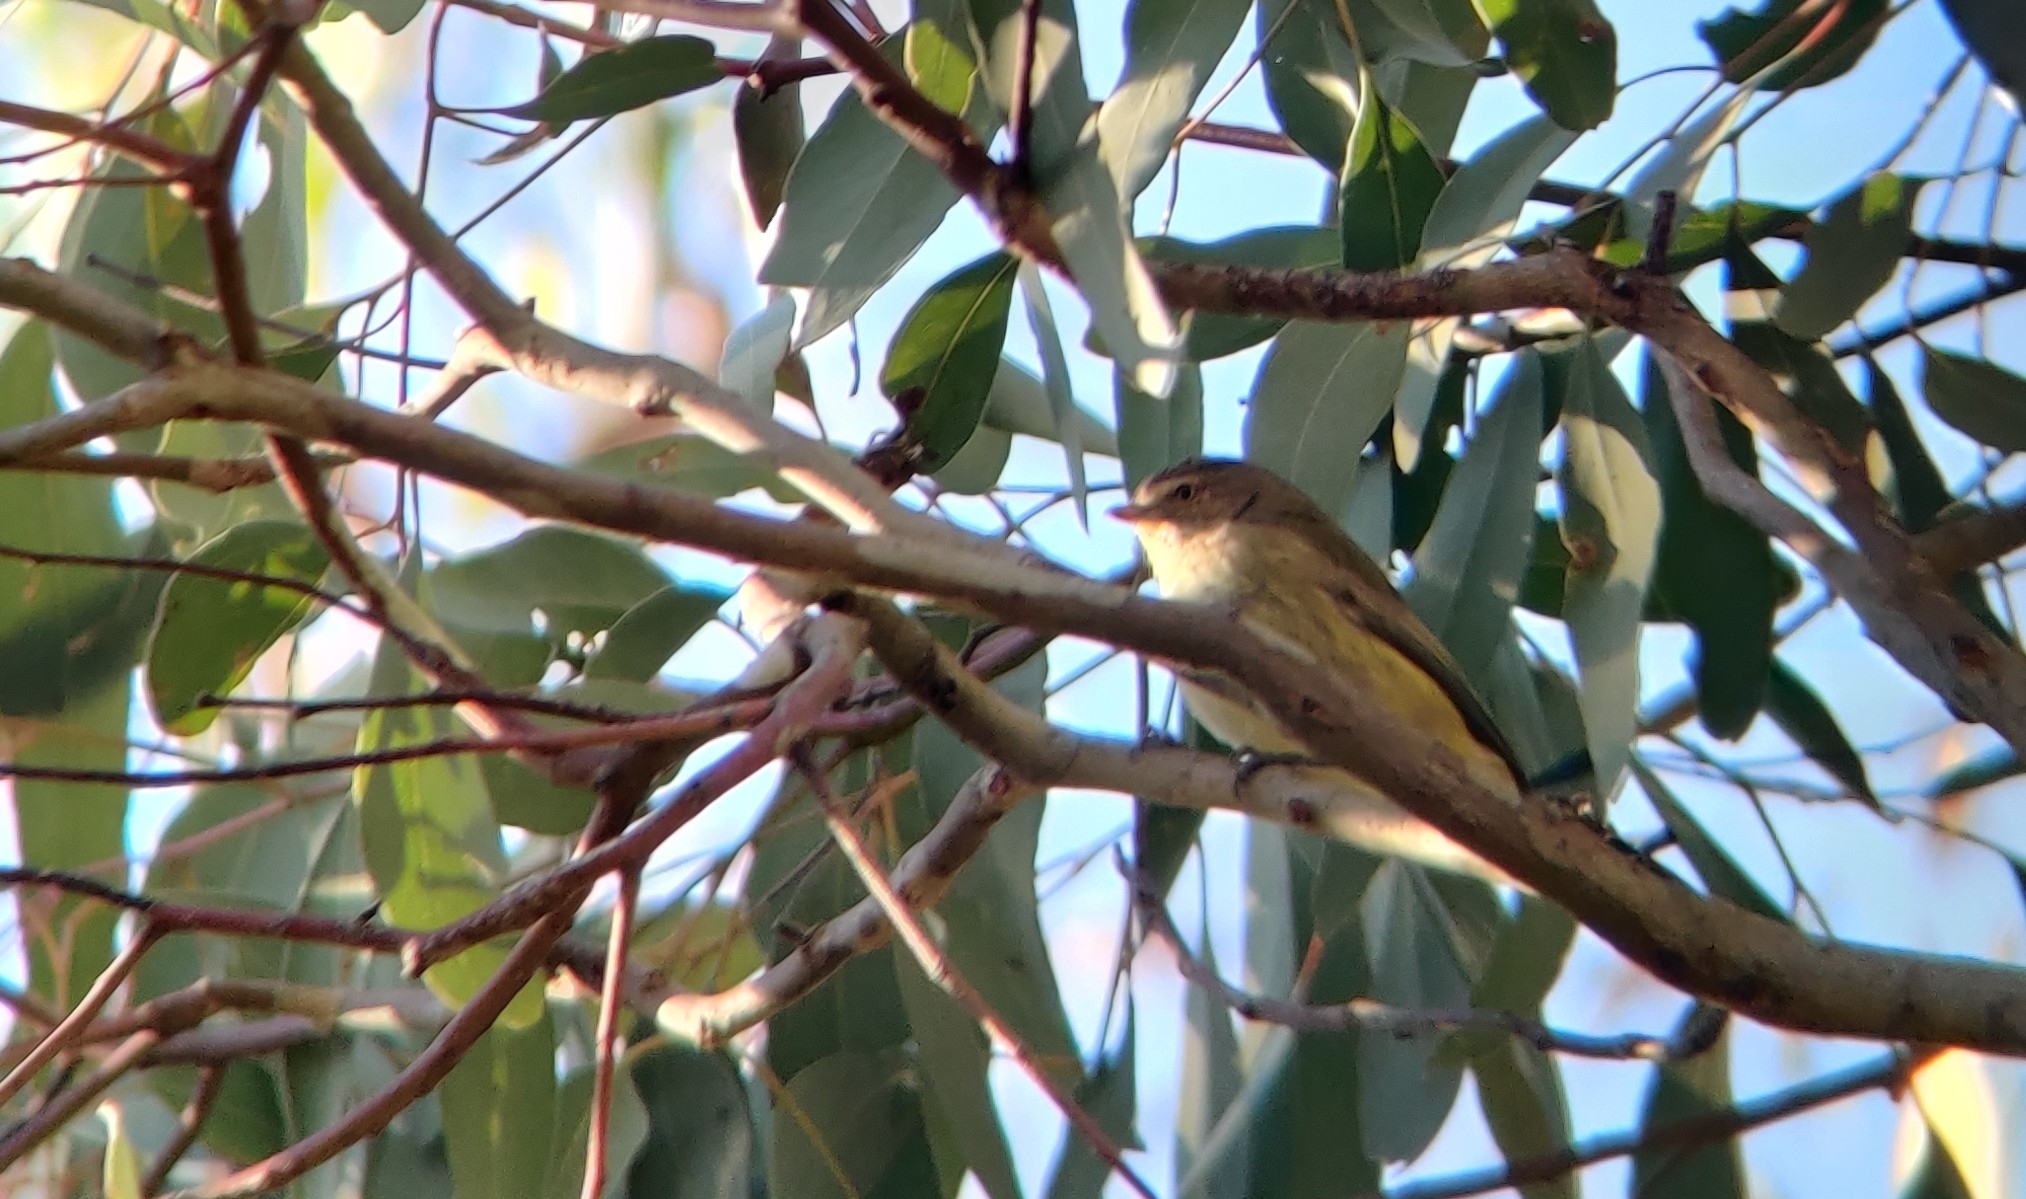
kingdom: Animalia
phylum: Chordata
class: Aves
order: Passeriformes
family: Acanthizidae
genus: Smicrornis
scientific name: Smicrornis brevirostris
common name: Weebill
